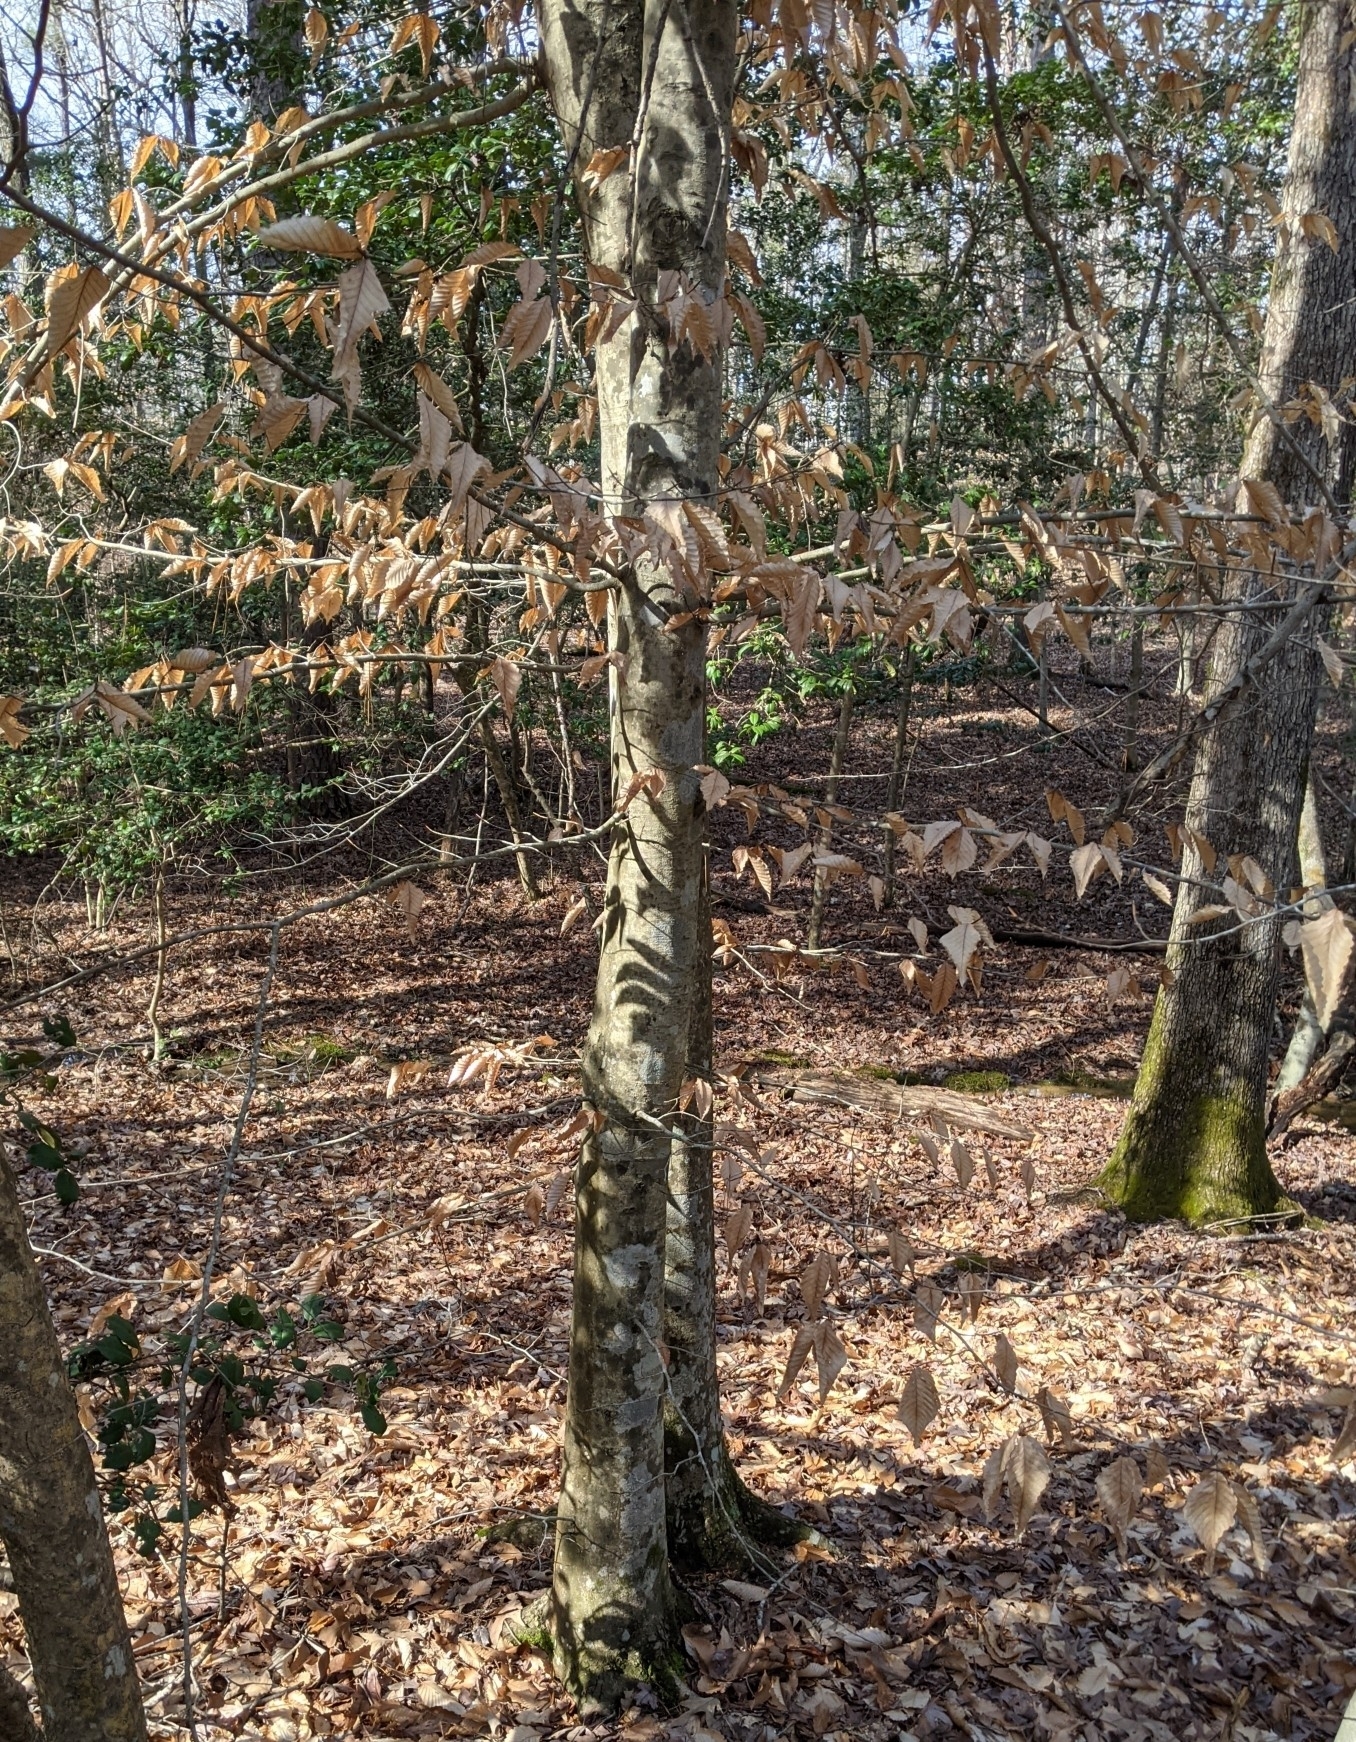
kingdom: Plantae
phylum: Tracheophyta
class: Magnoliopsida
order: Fagales
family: Fagaceae
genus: Fagus
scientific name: Fagus grandifolia
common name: American beech
